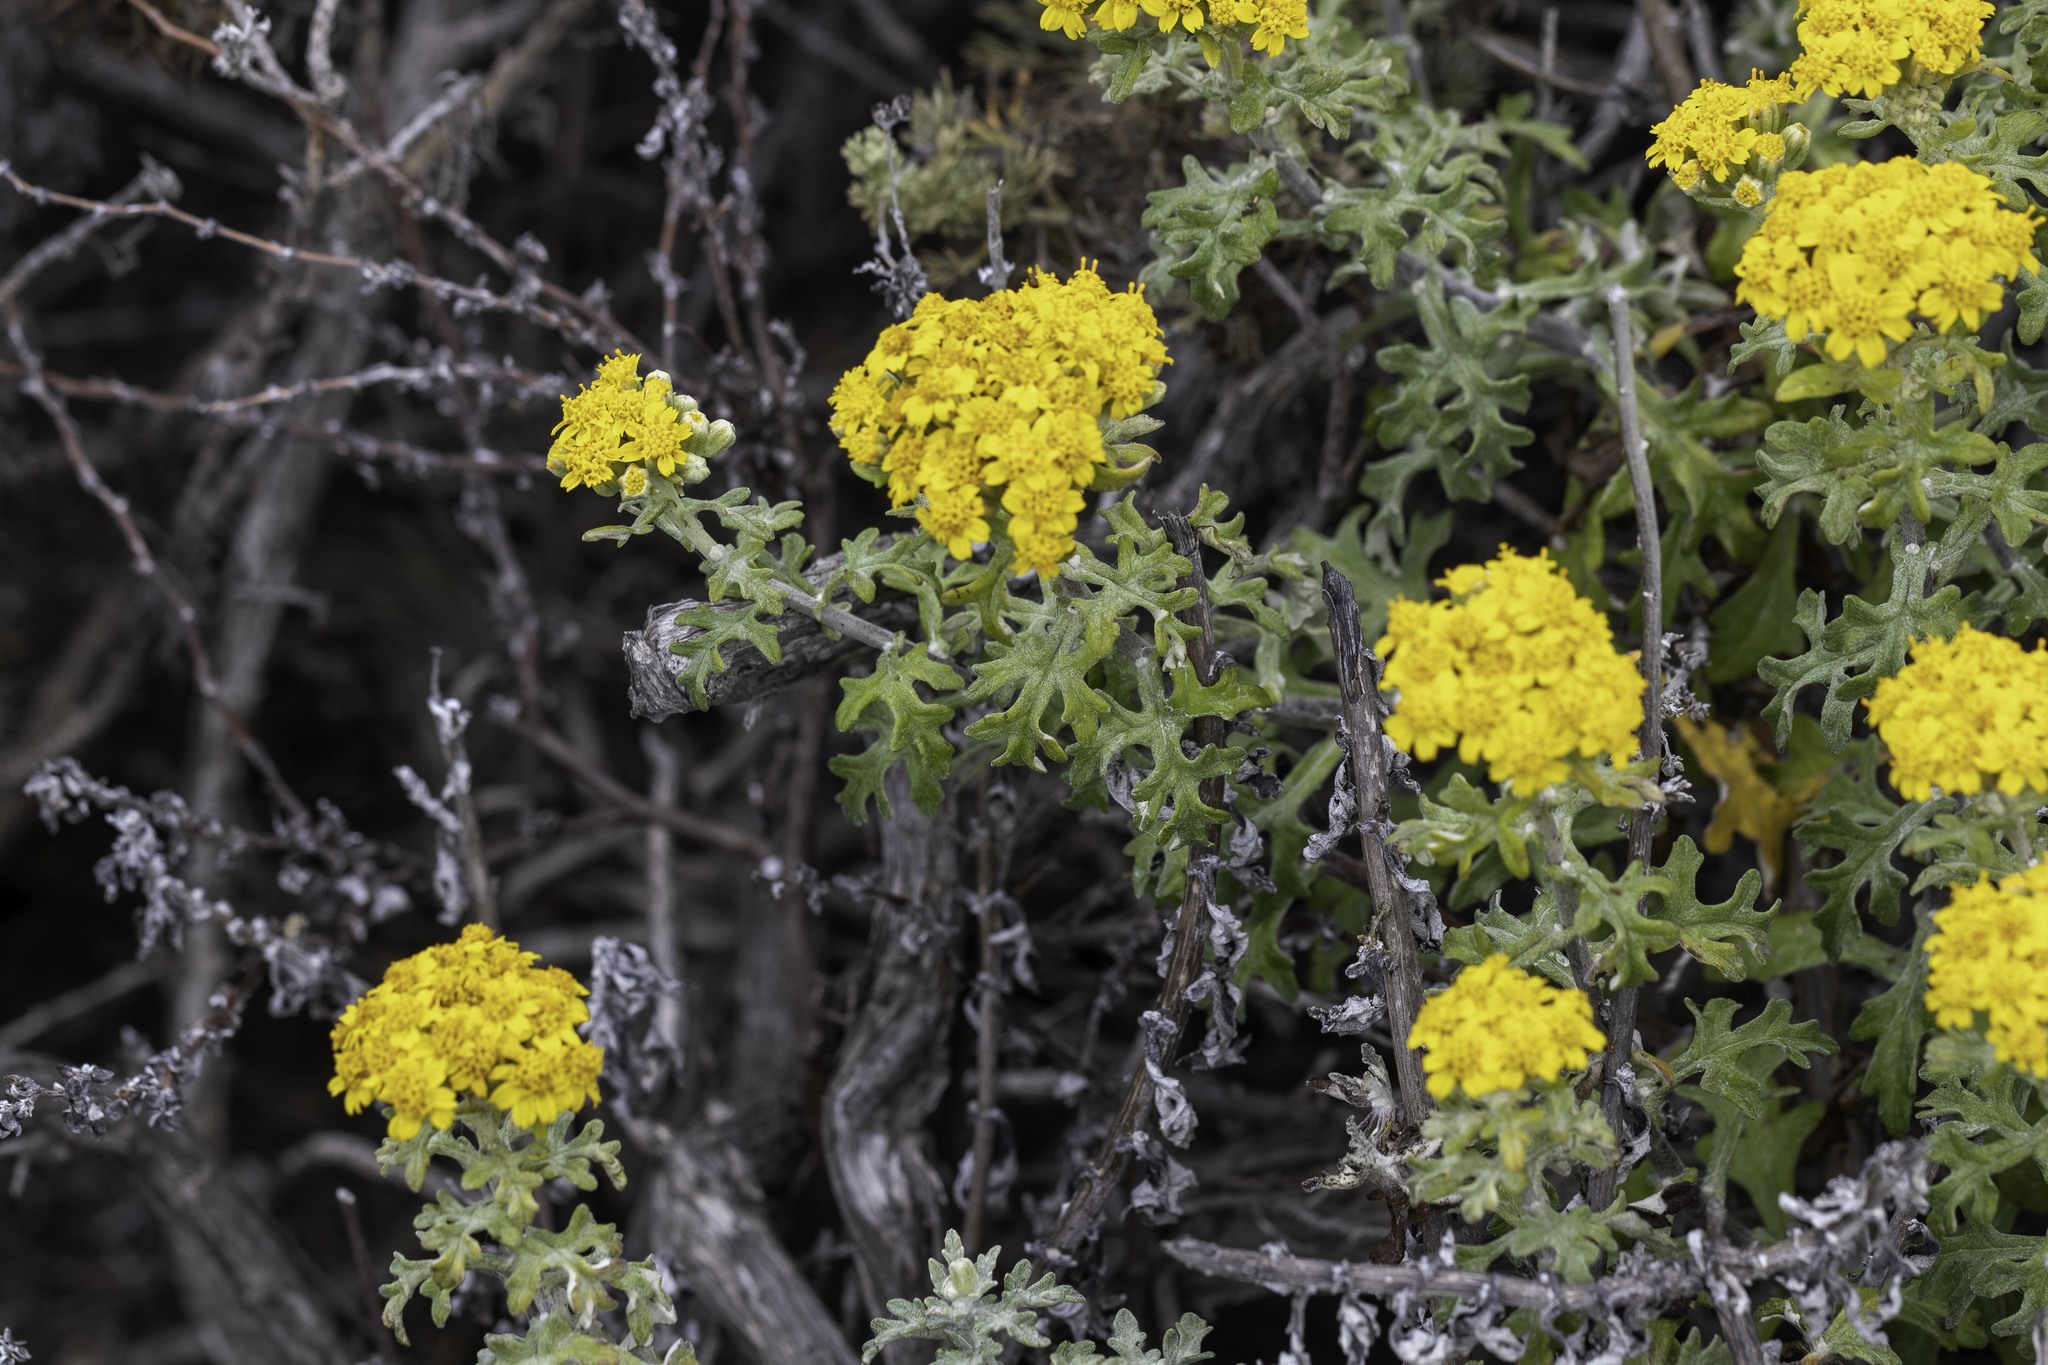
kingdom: Plantae
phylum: Tracheophyta
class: Magnoliopsida
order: Asterales
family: Asteraceae
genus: Eriophyllum
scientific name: Eriophyllum staechadifolium
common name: Lizardtail
